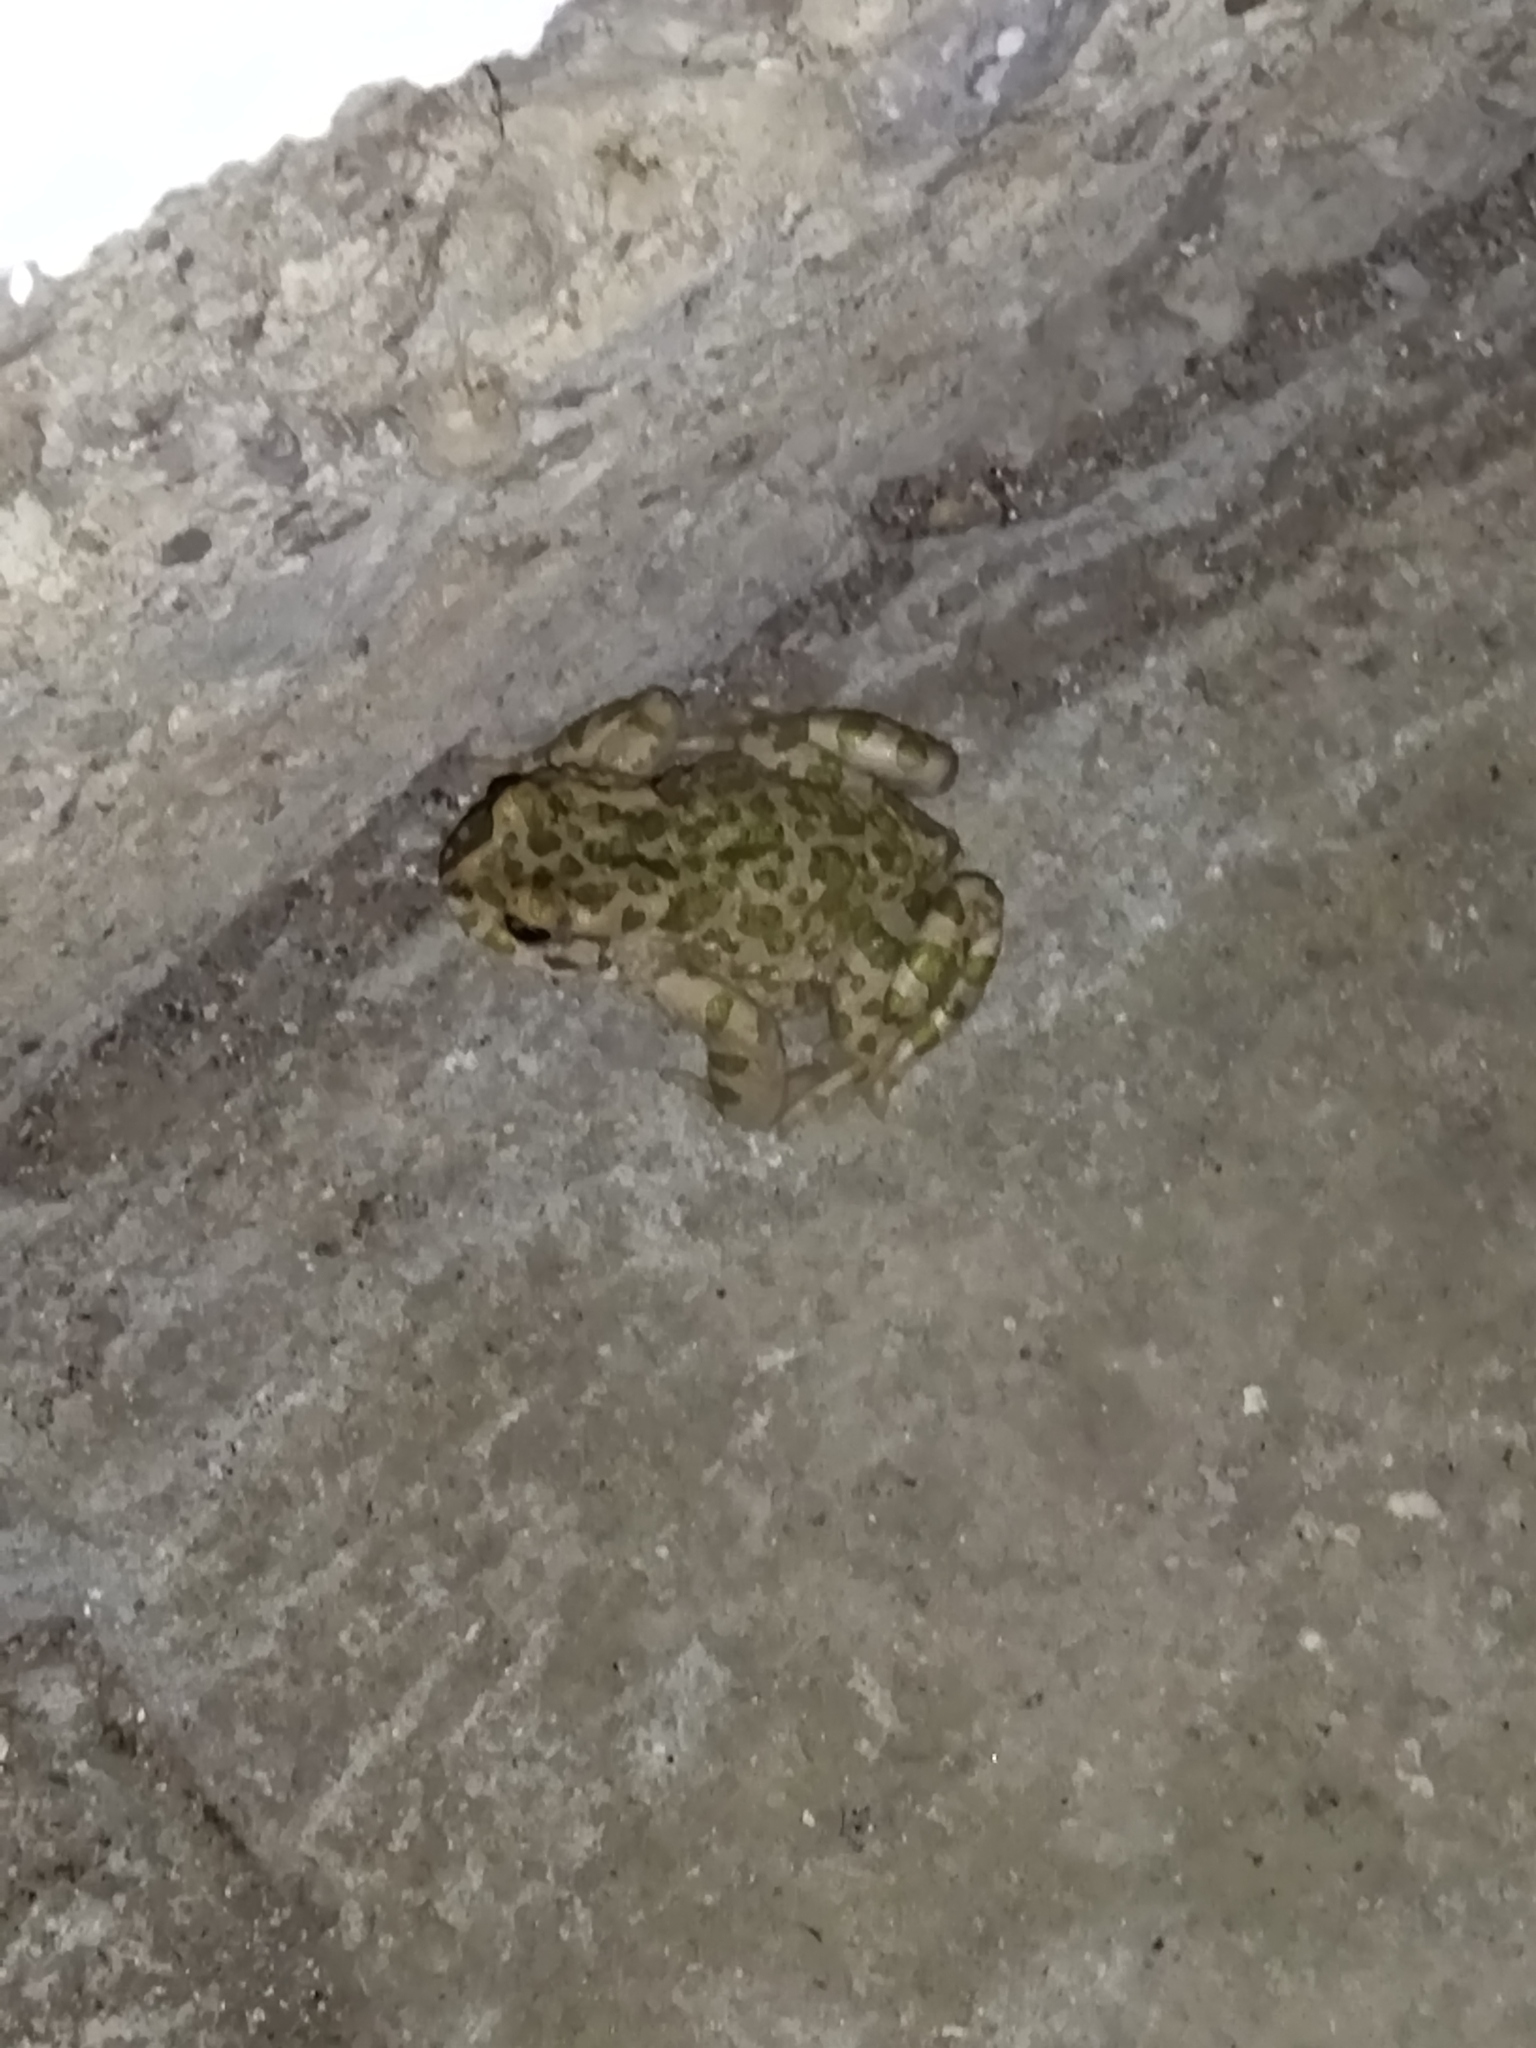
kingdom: Animalia
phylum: Chordata
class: Amphibia
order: Anura
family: Bufonidae
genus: Bufotes
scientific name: Bufotes viridis
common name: European green toad
